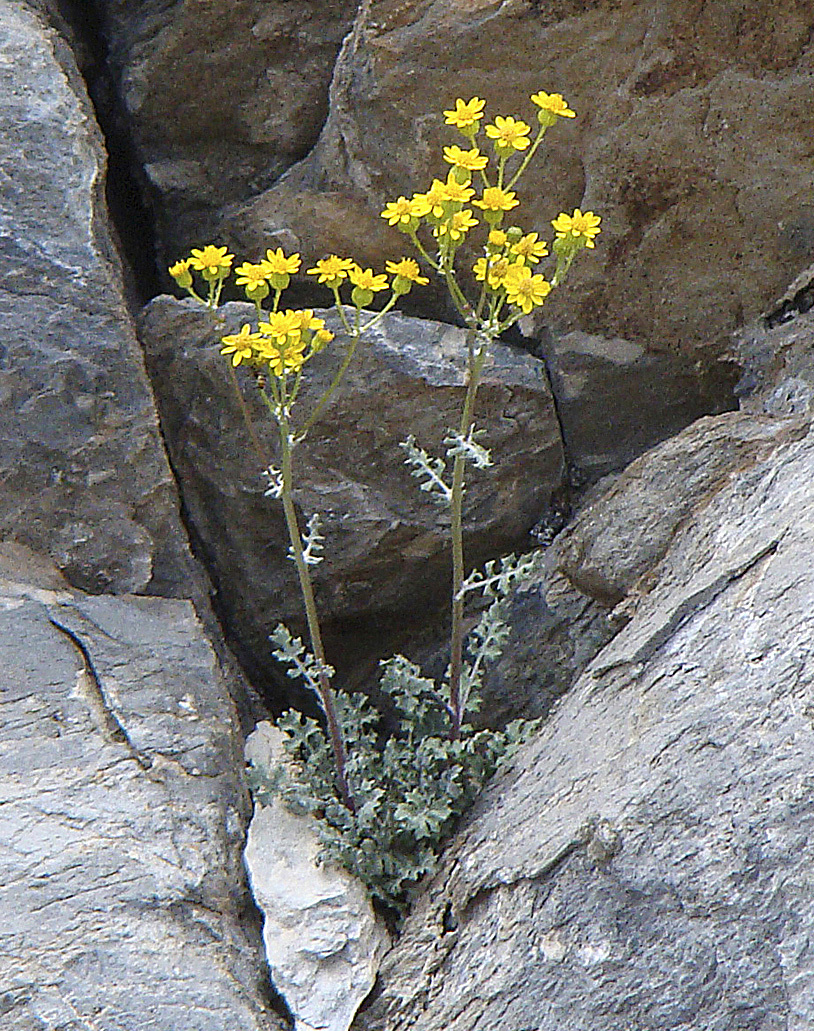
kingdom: Plantae
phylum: Tracheophyta
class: Magnoliopsida
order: Asterales
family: Asteraceae
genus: Packera
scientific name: Packera multilobata
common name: Lobe-leaf groundsel
